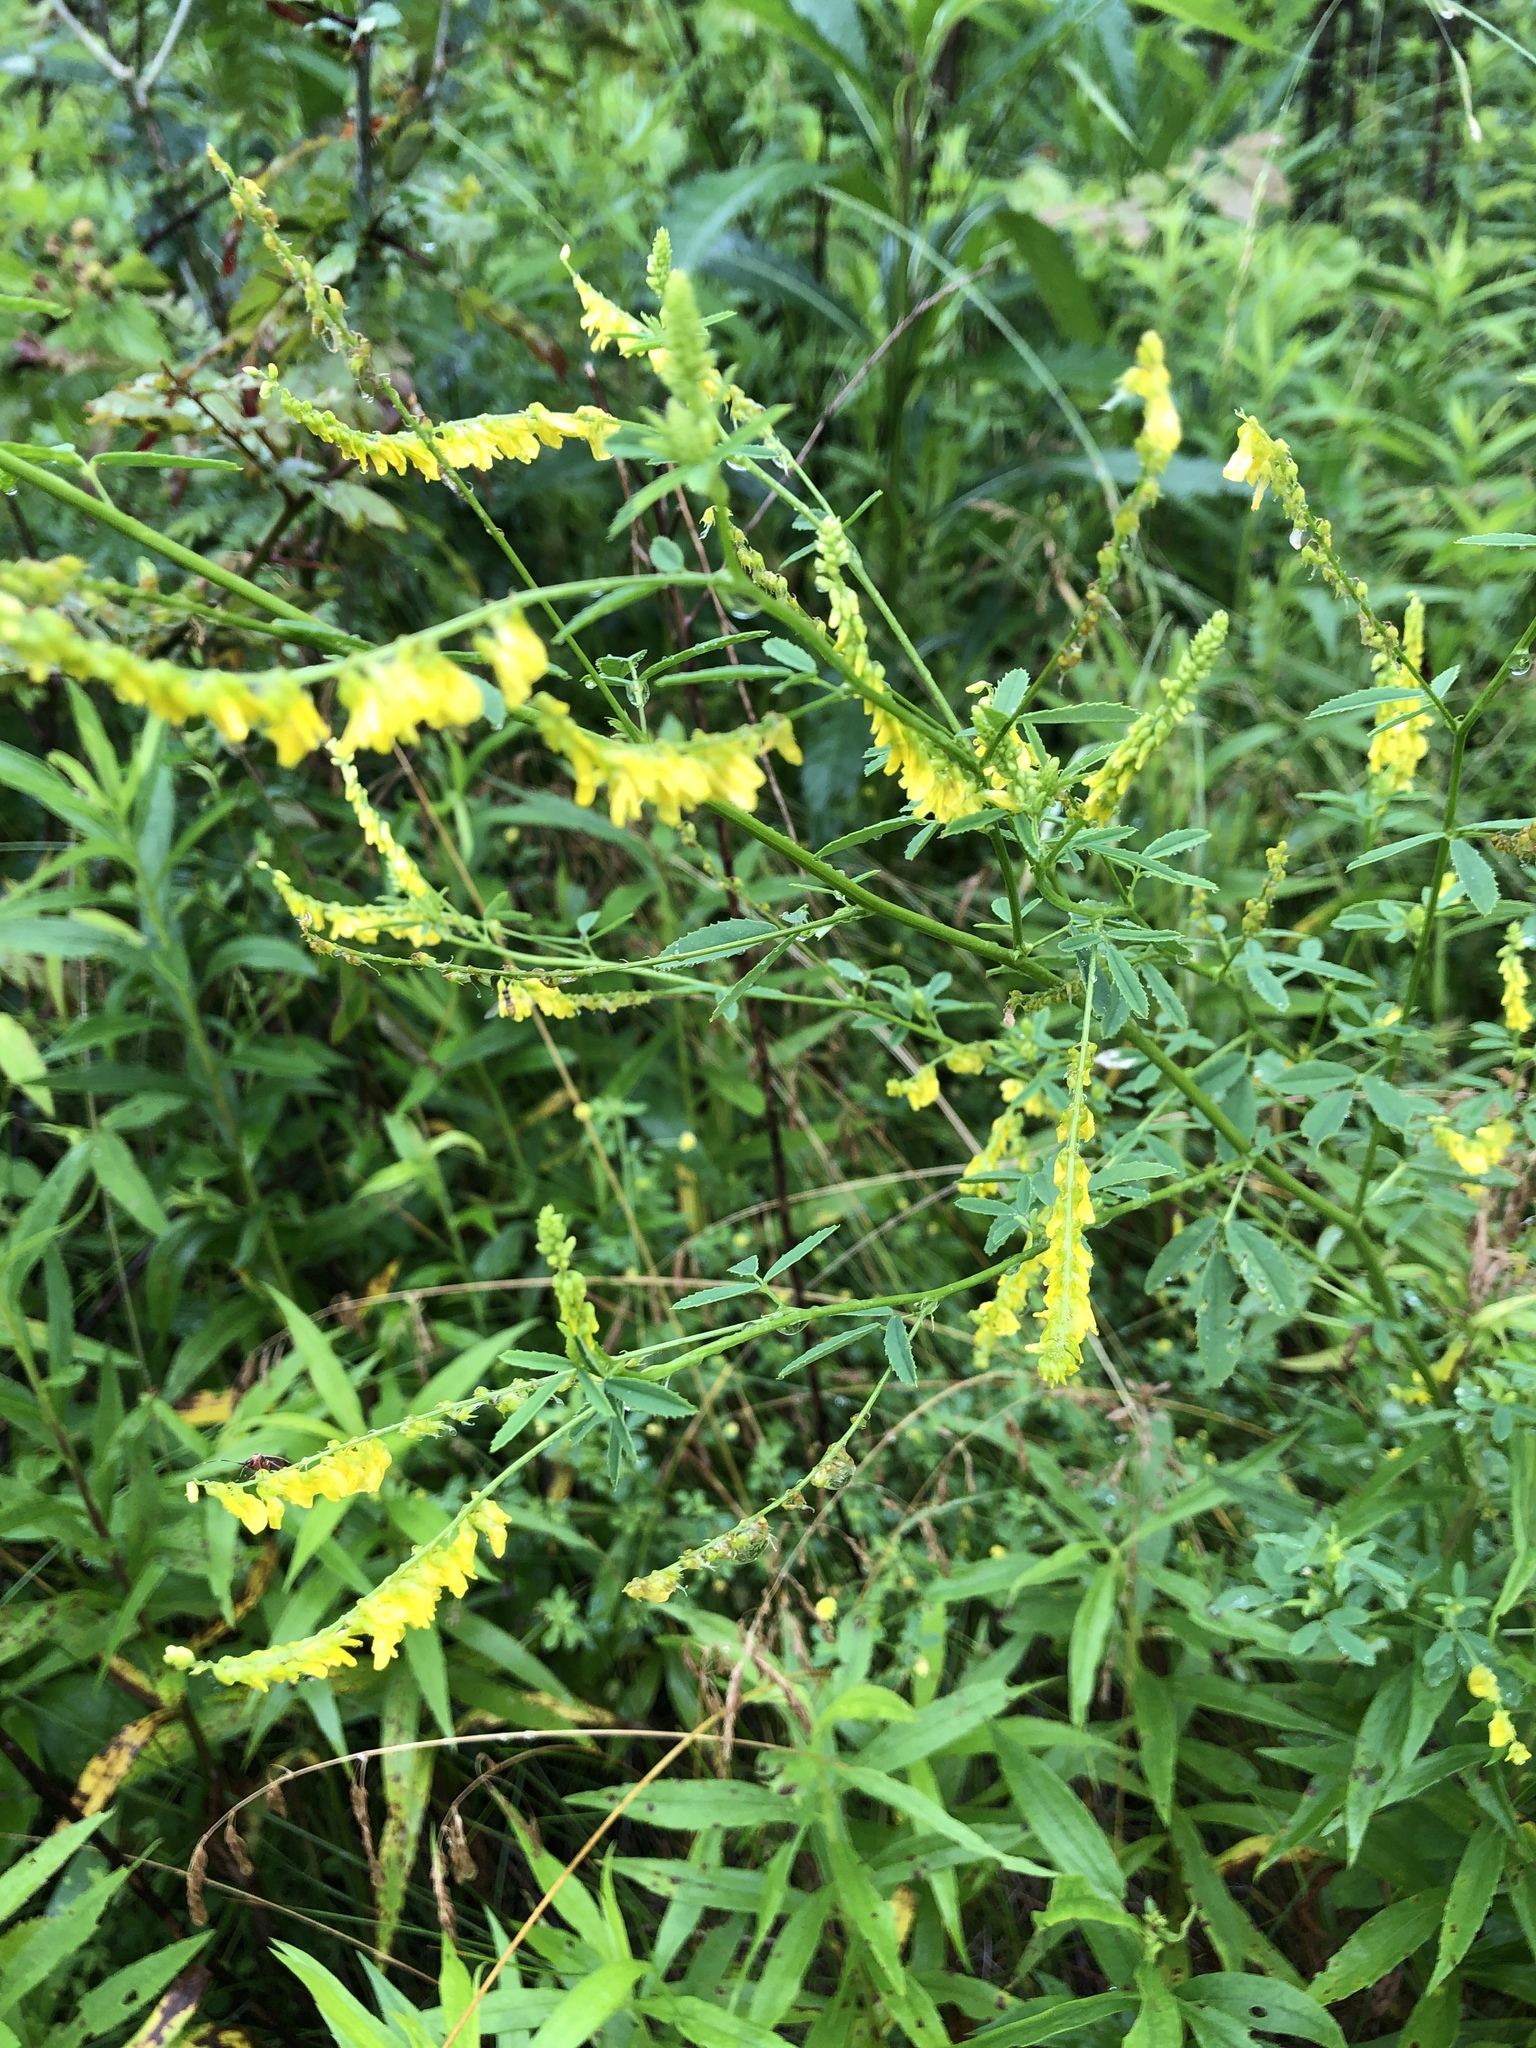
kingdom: Plantae
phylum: Tracheophyta
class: Magnoliopsida
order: Fabales
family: Fabaceae
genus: Melilotus
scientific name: Melilotus officinalis
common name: Sweetclover
